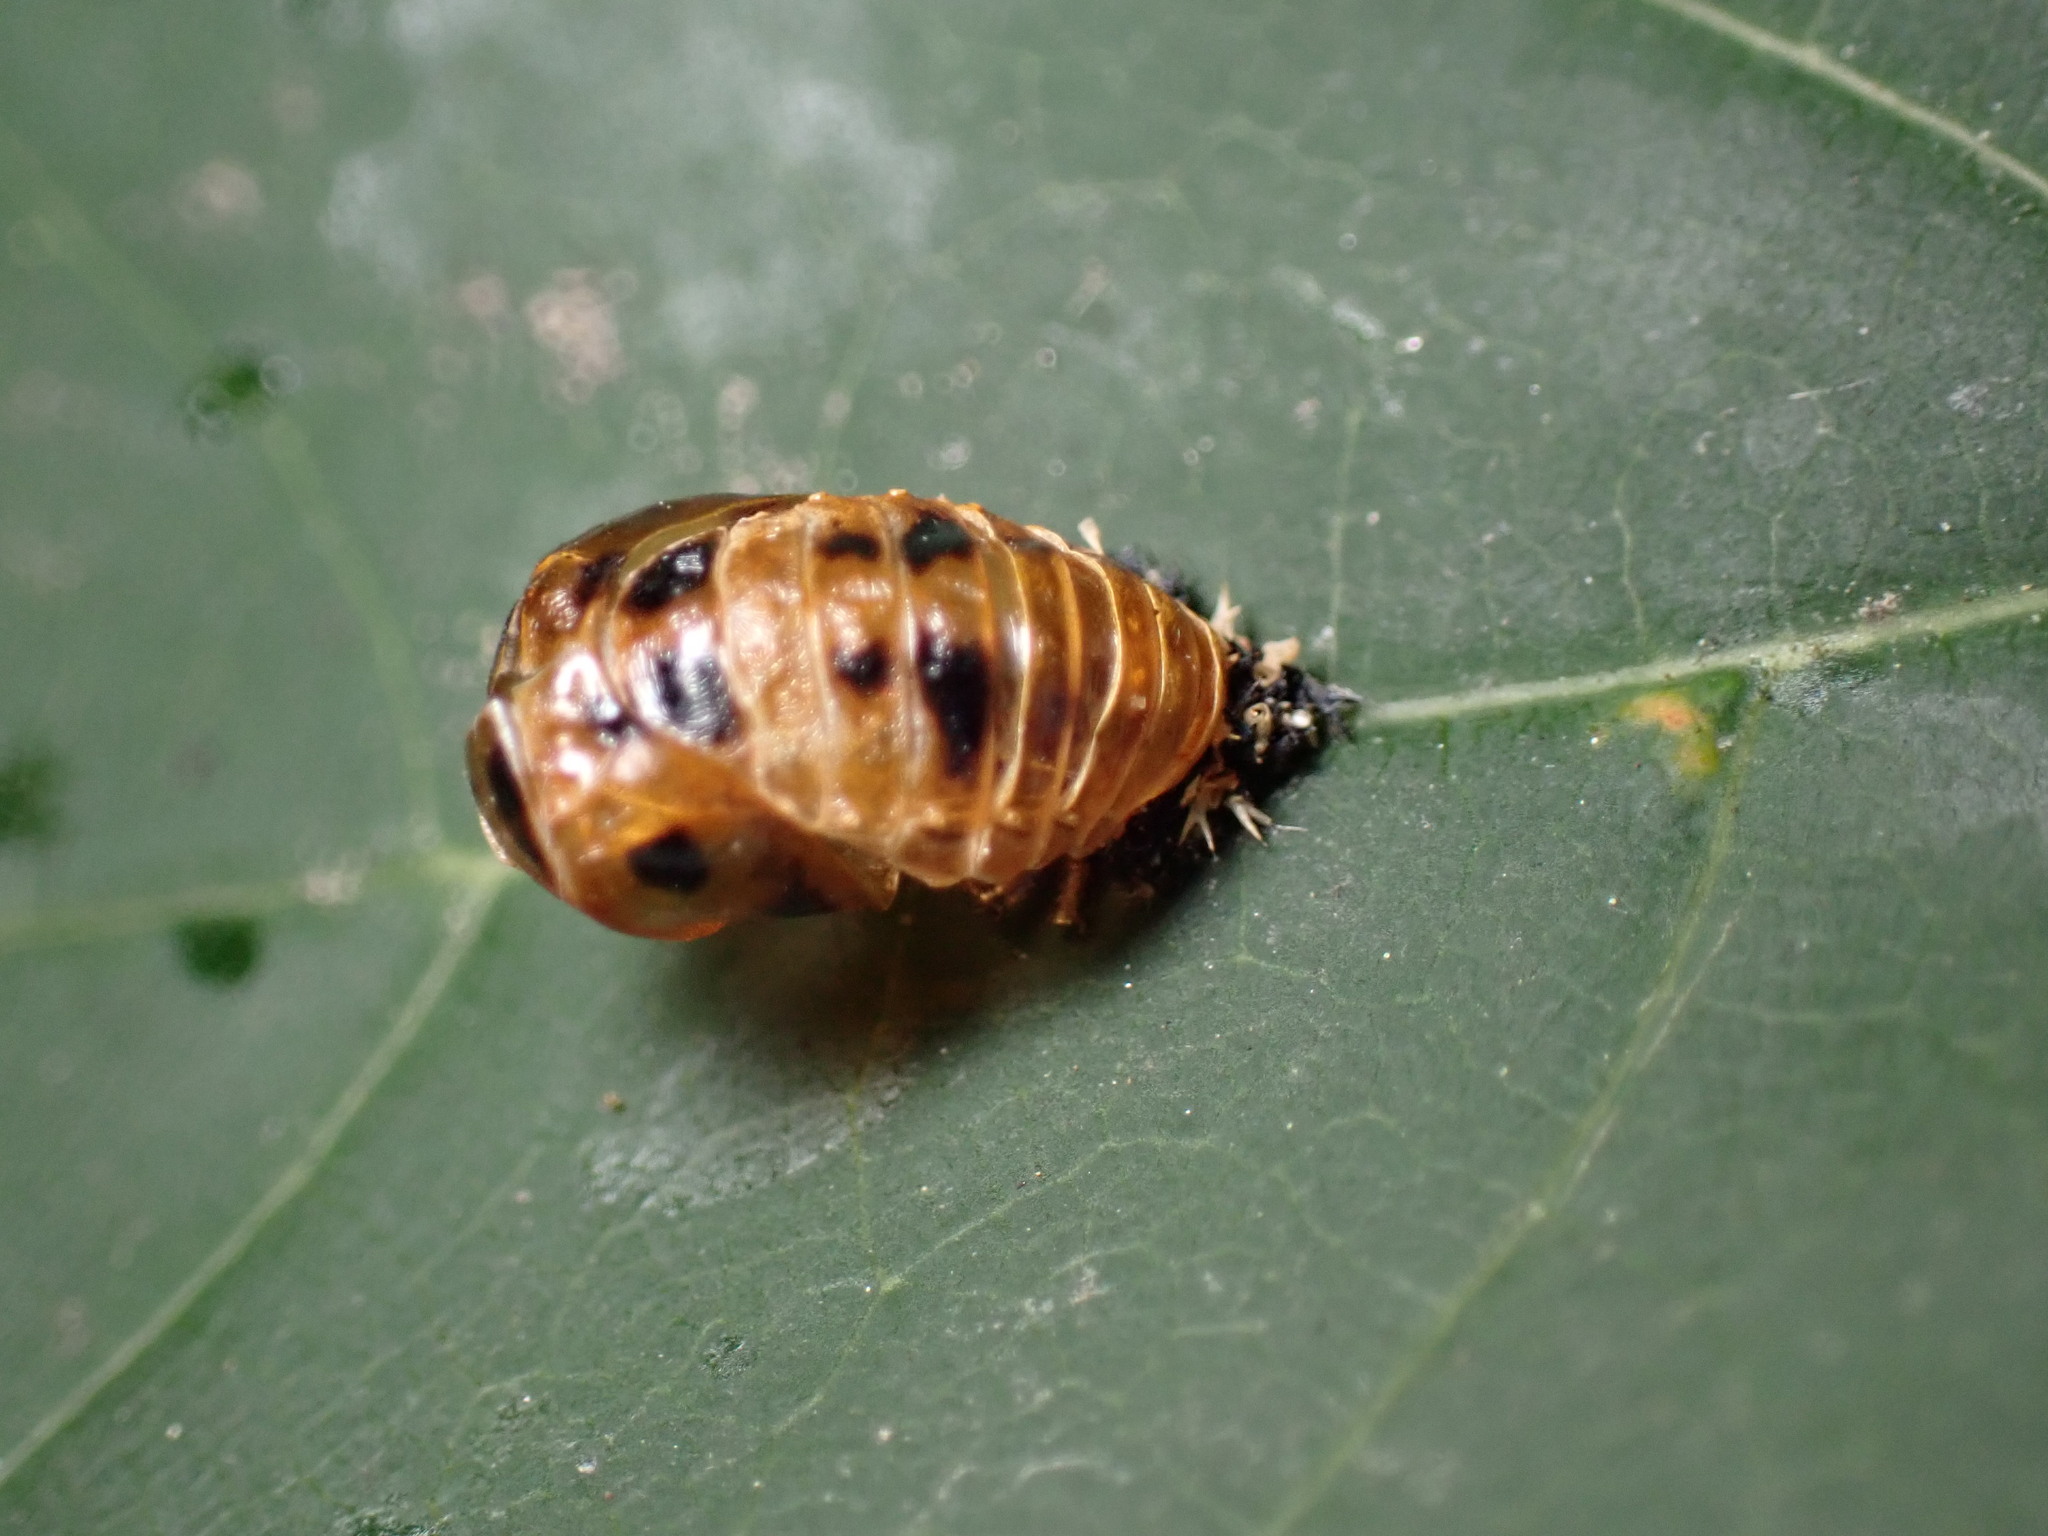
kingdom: Animalia
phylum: Arthropoda
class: Insecta
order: Coleoptera
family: Coccinellidae
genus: Harmonia
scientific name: Harmonia axyridis
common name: Harlequin ladybird
